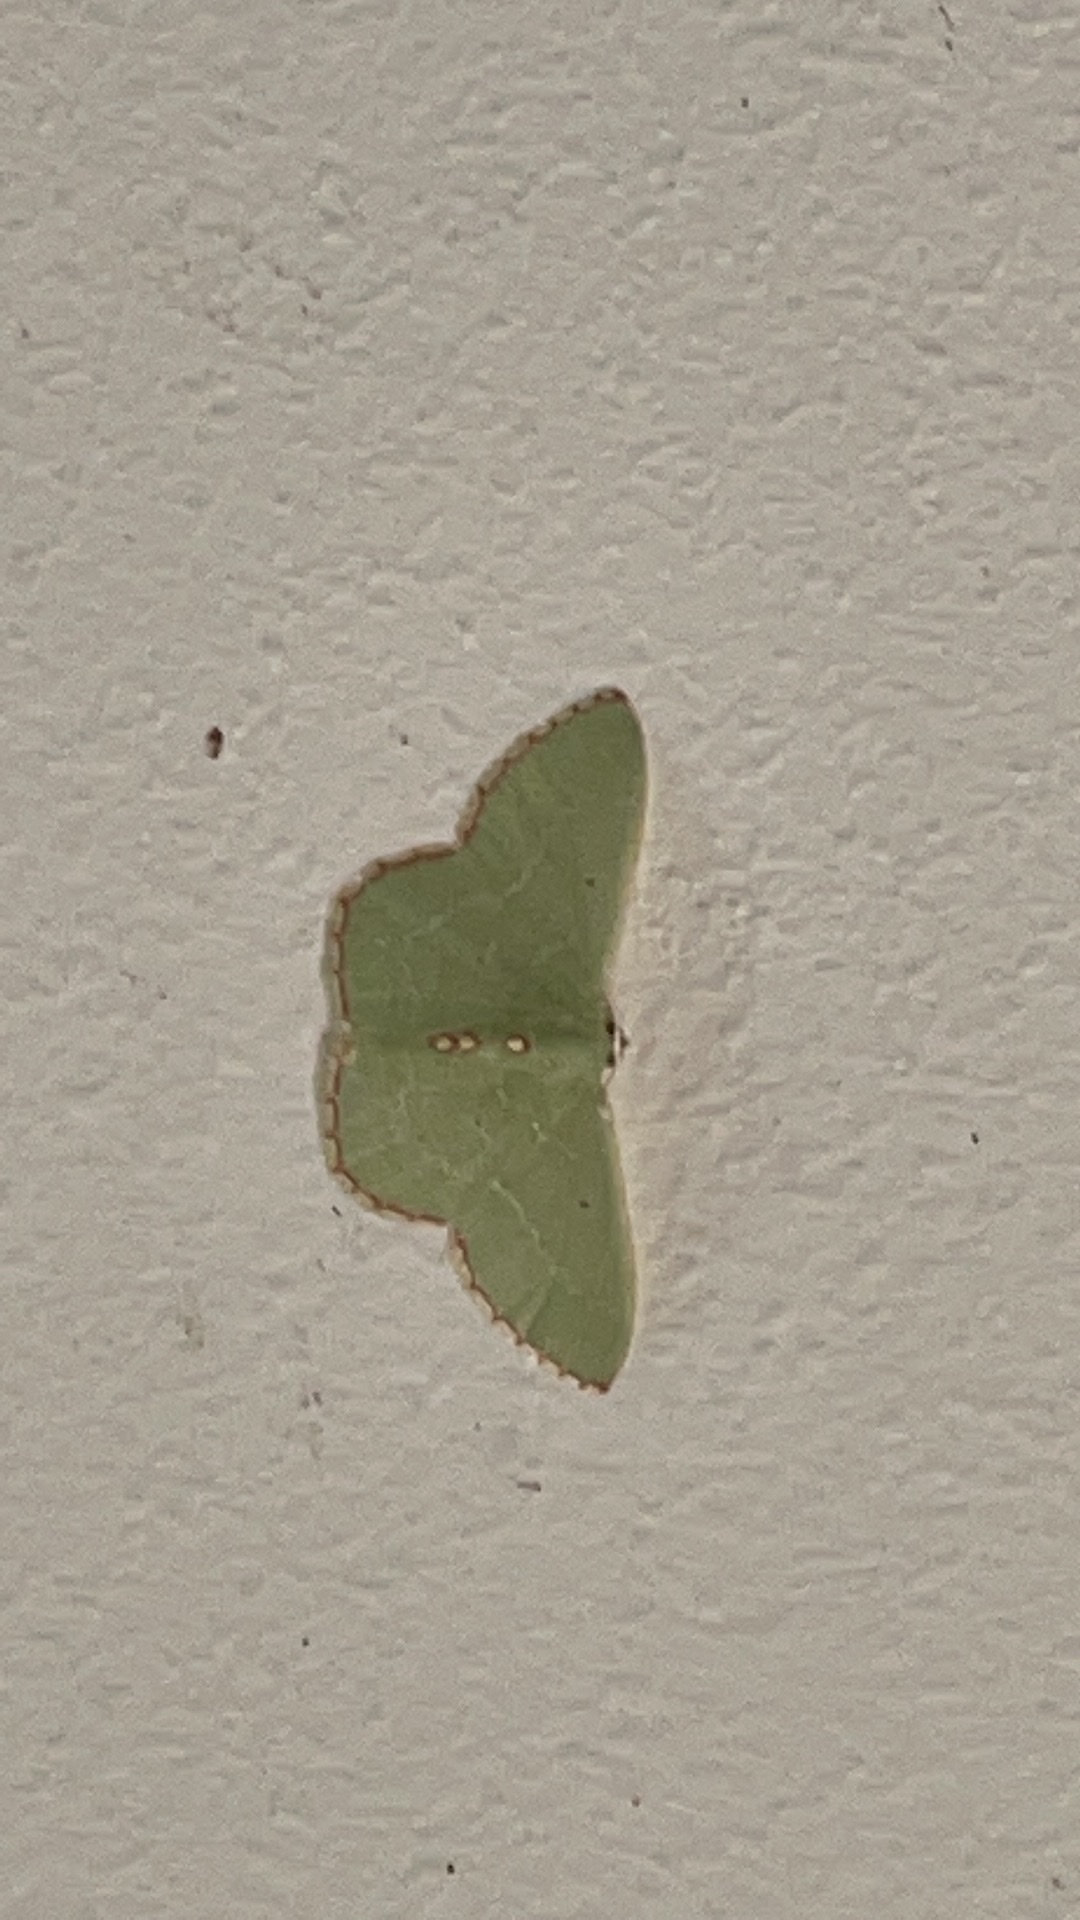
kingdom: Animalia
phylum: Arthropoda
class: Insecta
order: Lepidoptera
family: Geometridae
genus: Nemoria
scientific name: Nemoria lixaria
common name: Red-bordered emerald
